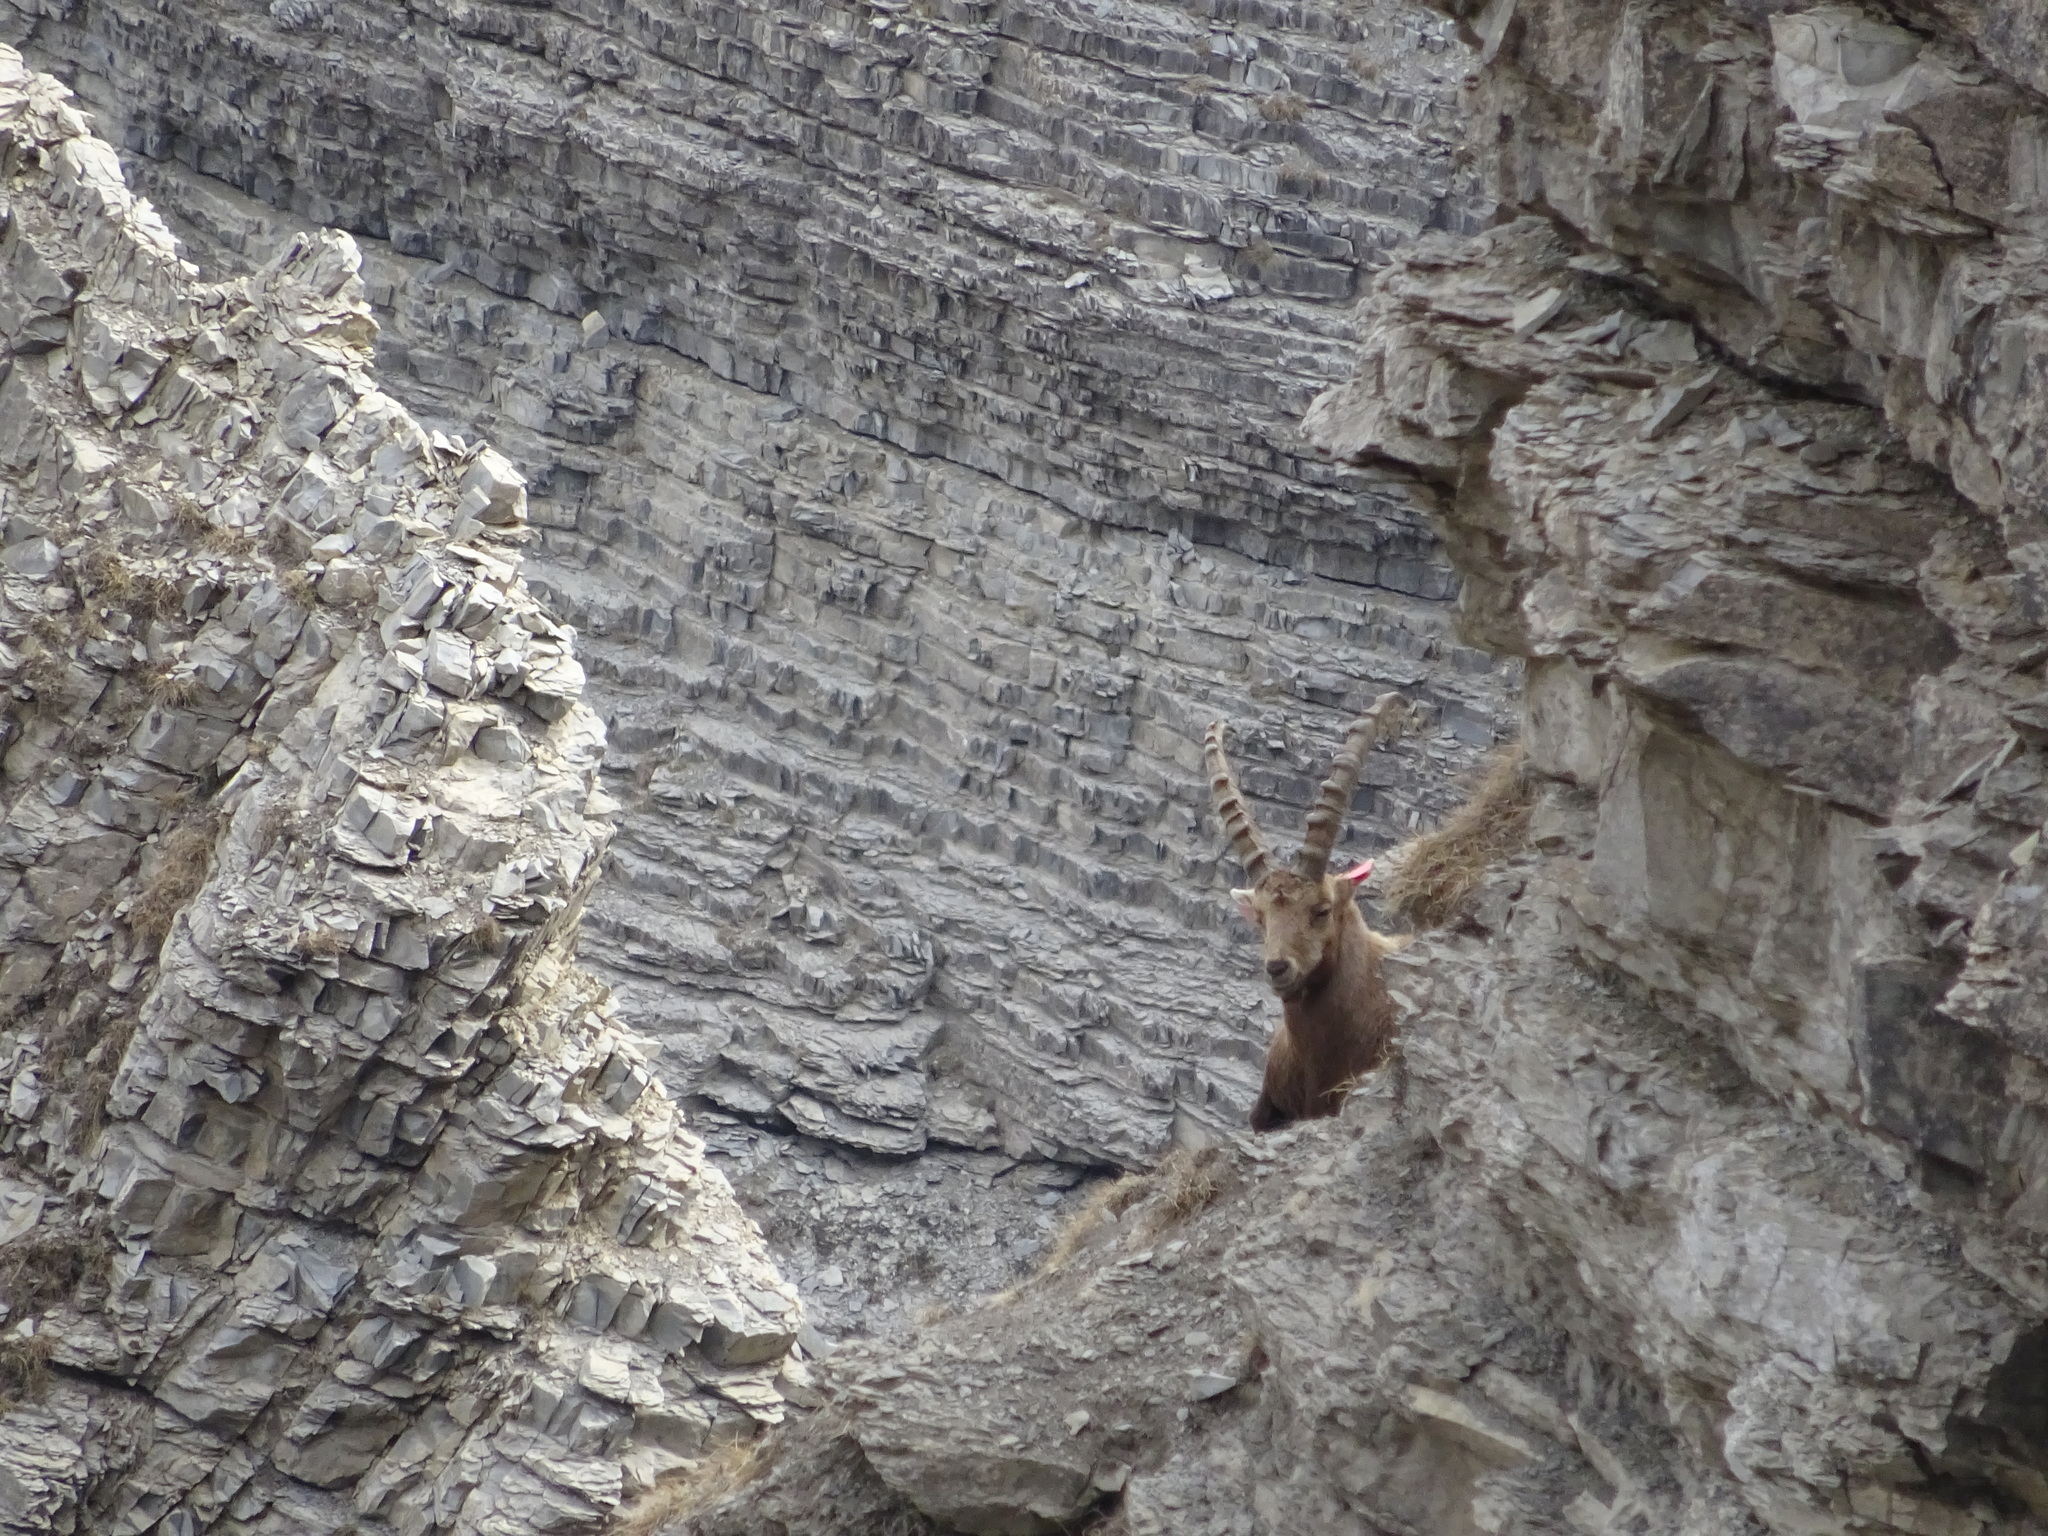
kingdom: Animalia
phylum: Chordata
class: Mammalia
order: Artiodactyla
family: Bovidae
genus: Capra
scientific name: Capra ibex
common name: Alpine ibex
